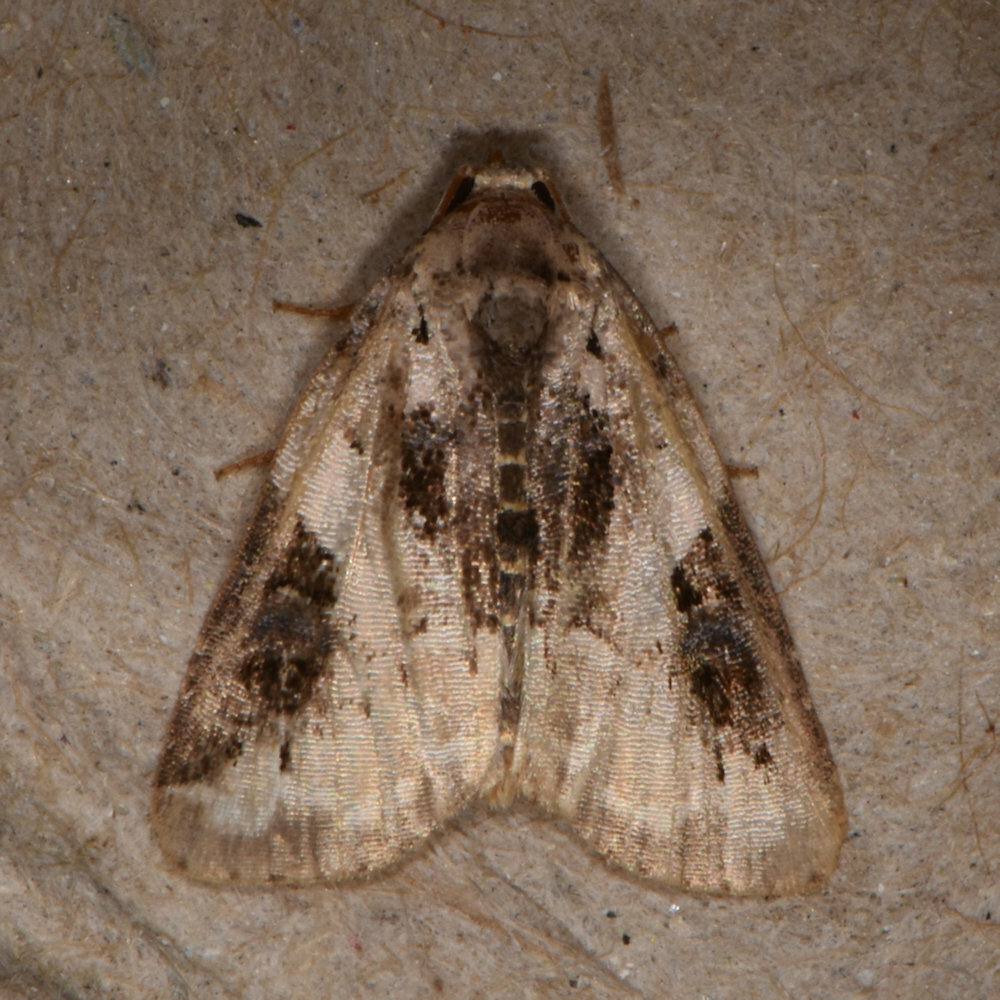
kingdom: Animalia
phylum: Arthropoda
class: Insecta
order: Lepidoptera
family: Noctuidae
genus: Pseudeustrotia
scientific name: Pseudeustrotia carneola
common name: Pink-barred lithacodia moth
